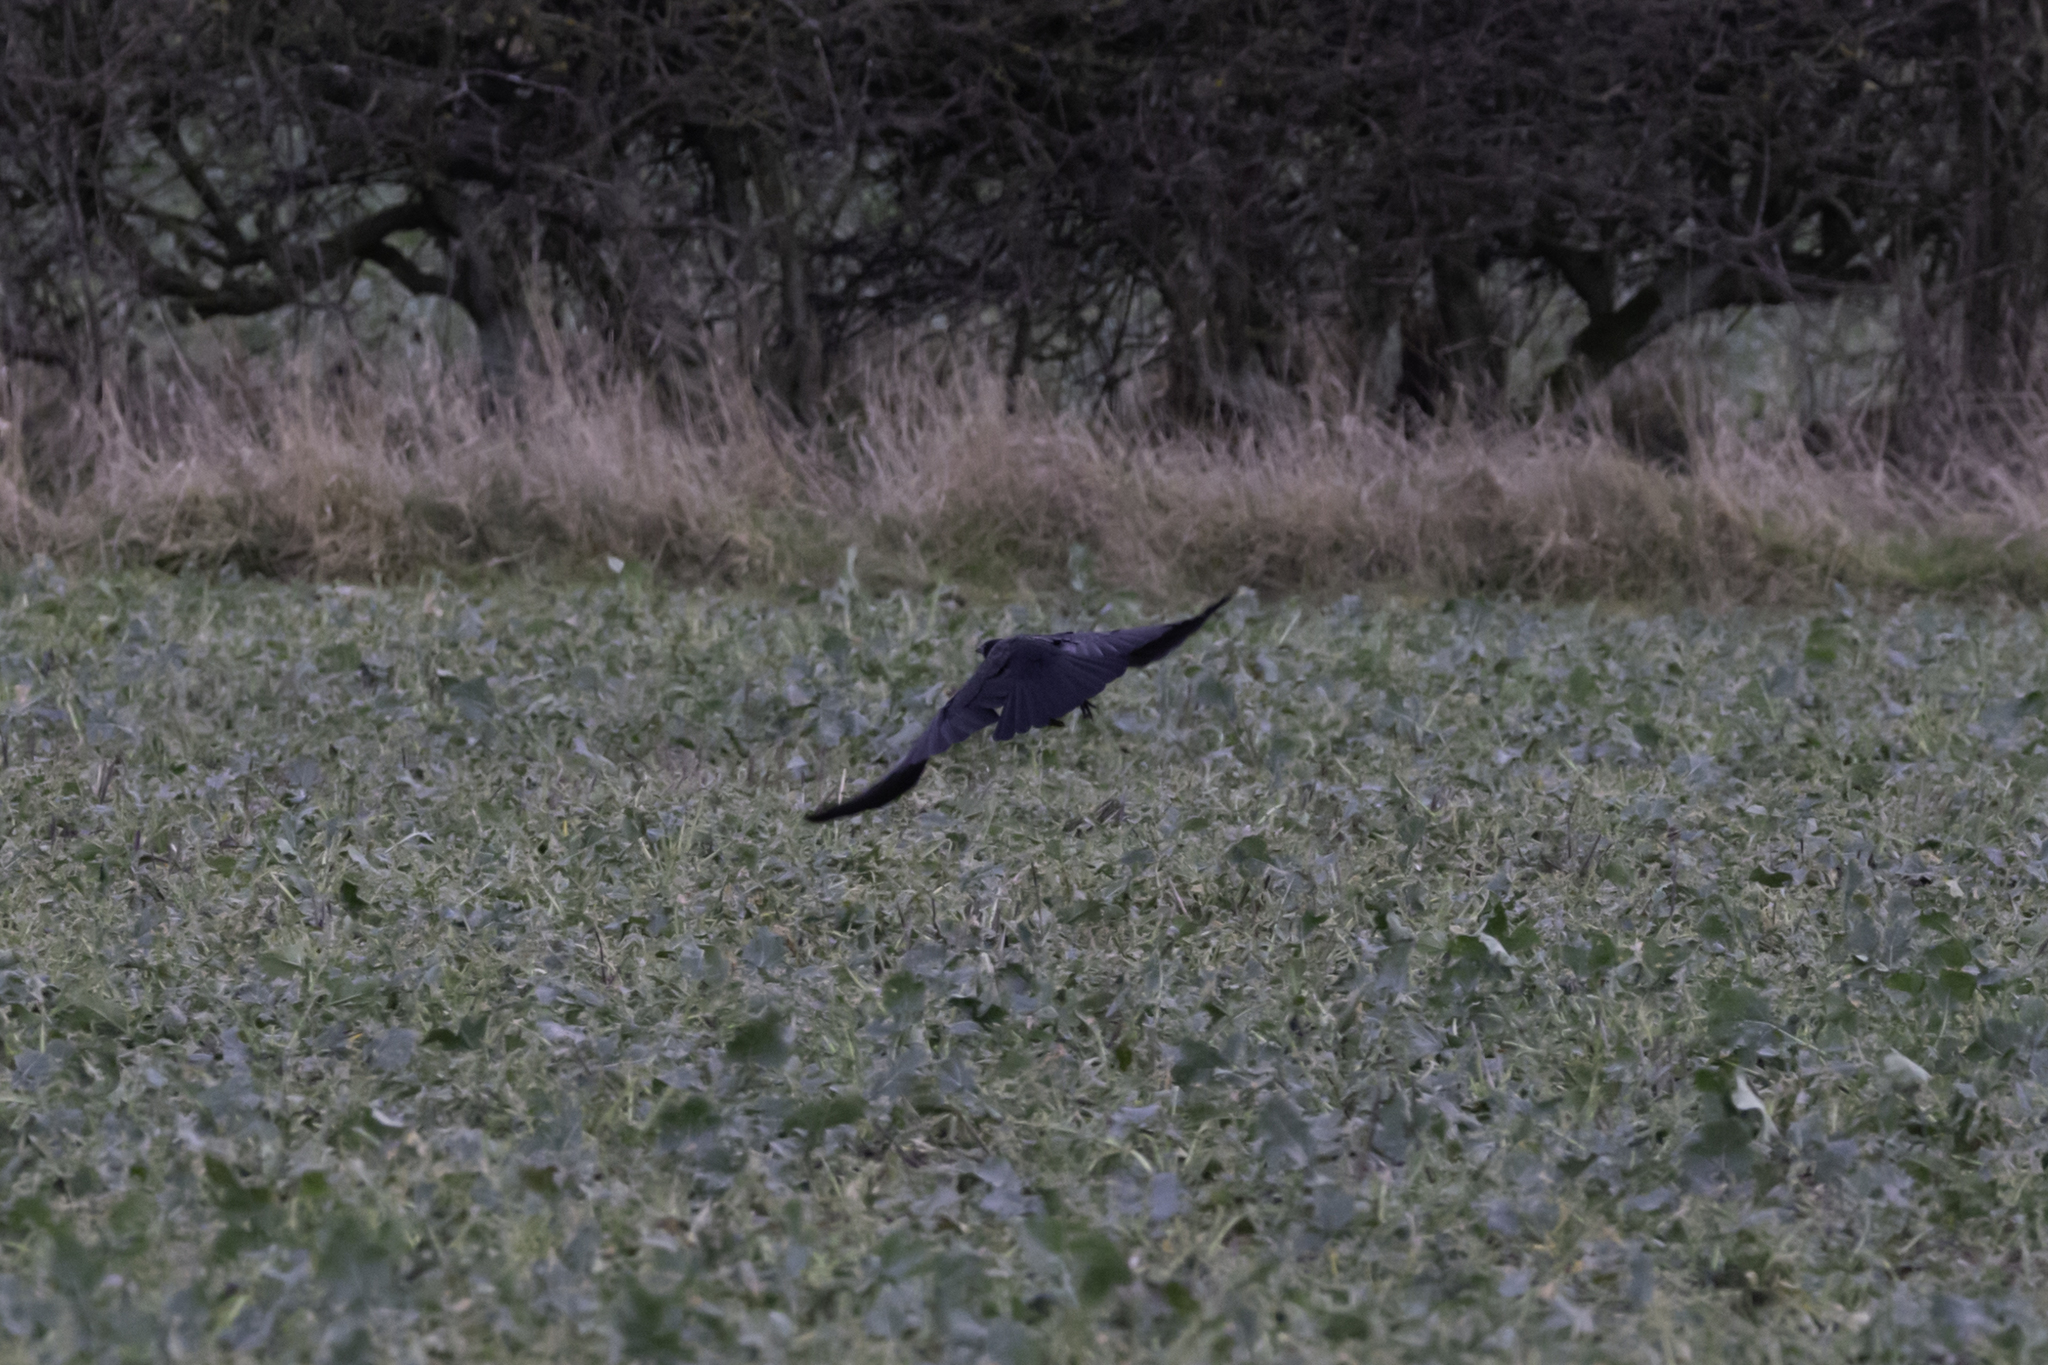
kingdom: Animalia
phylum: Chordata
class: Aves
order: Passeriformes
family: Corvidae
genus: Corvus
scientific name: Corvus corone
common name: Carrion crow
